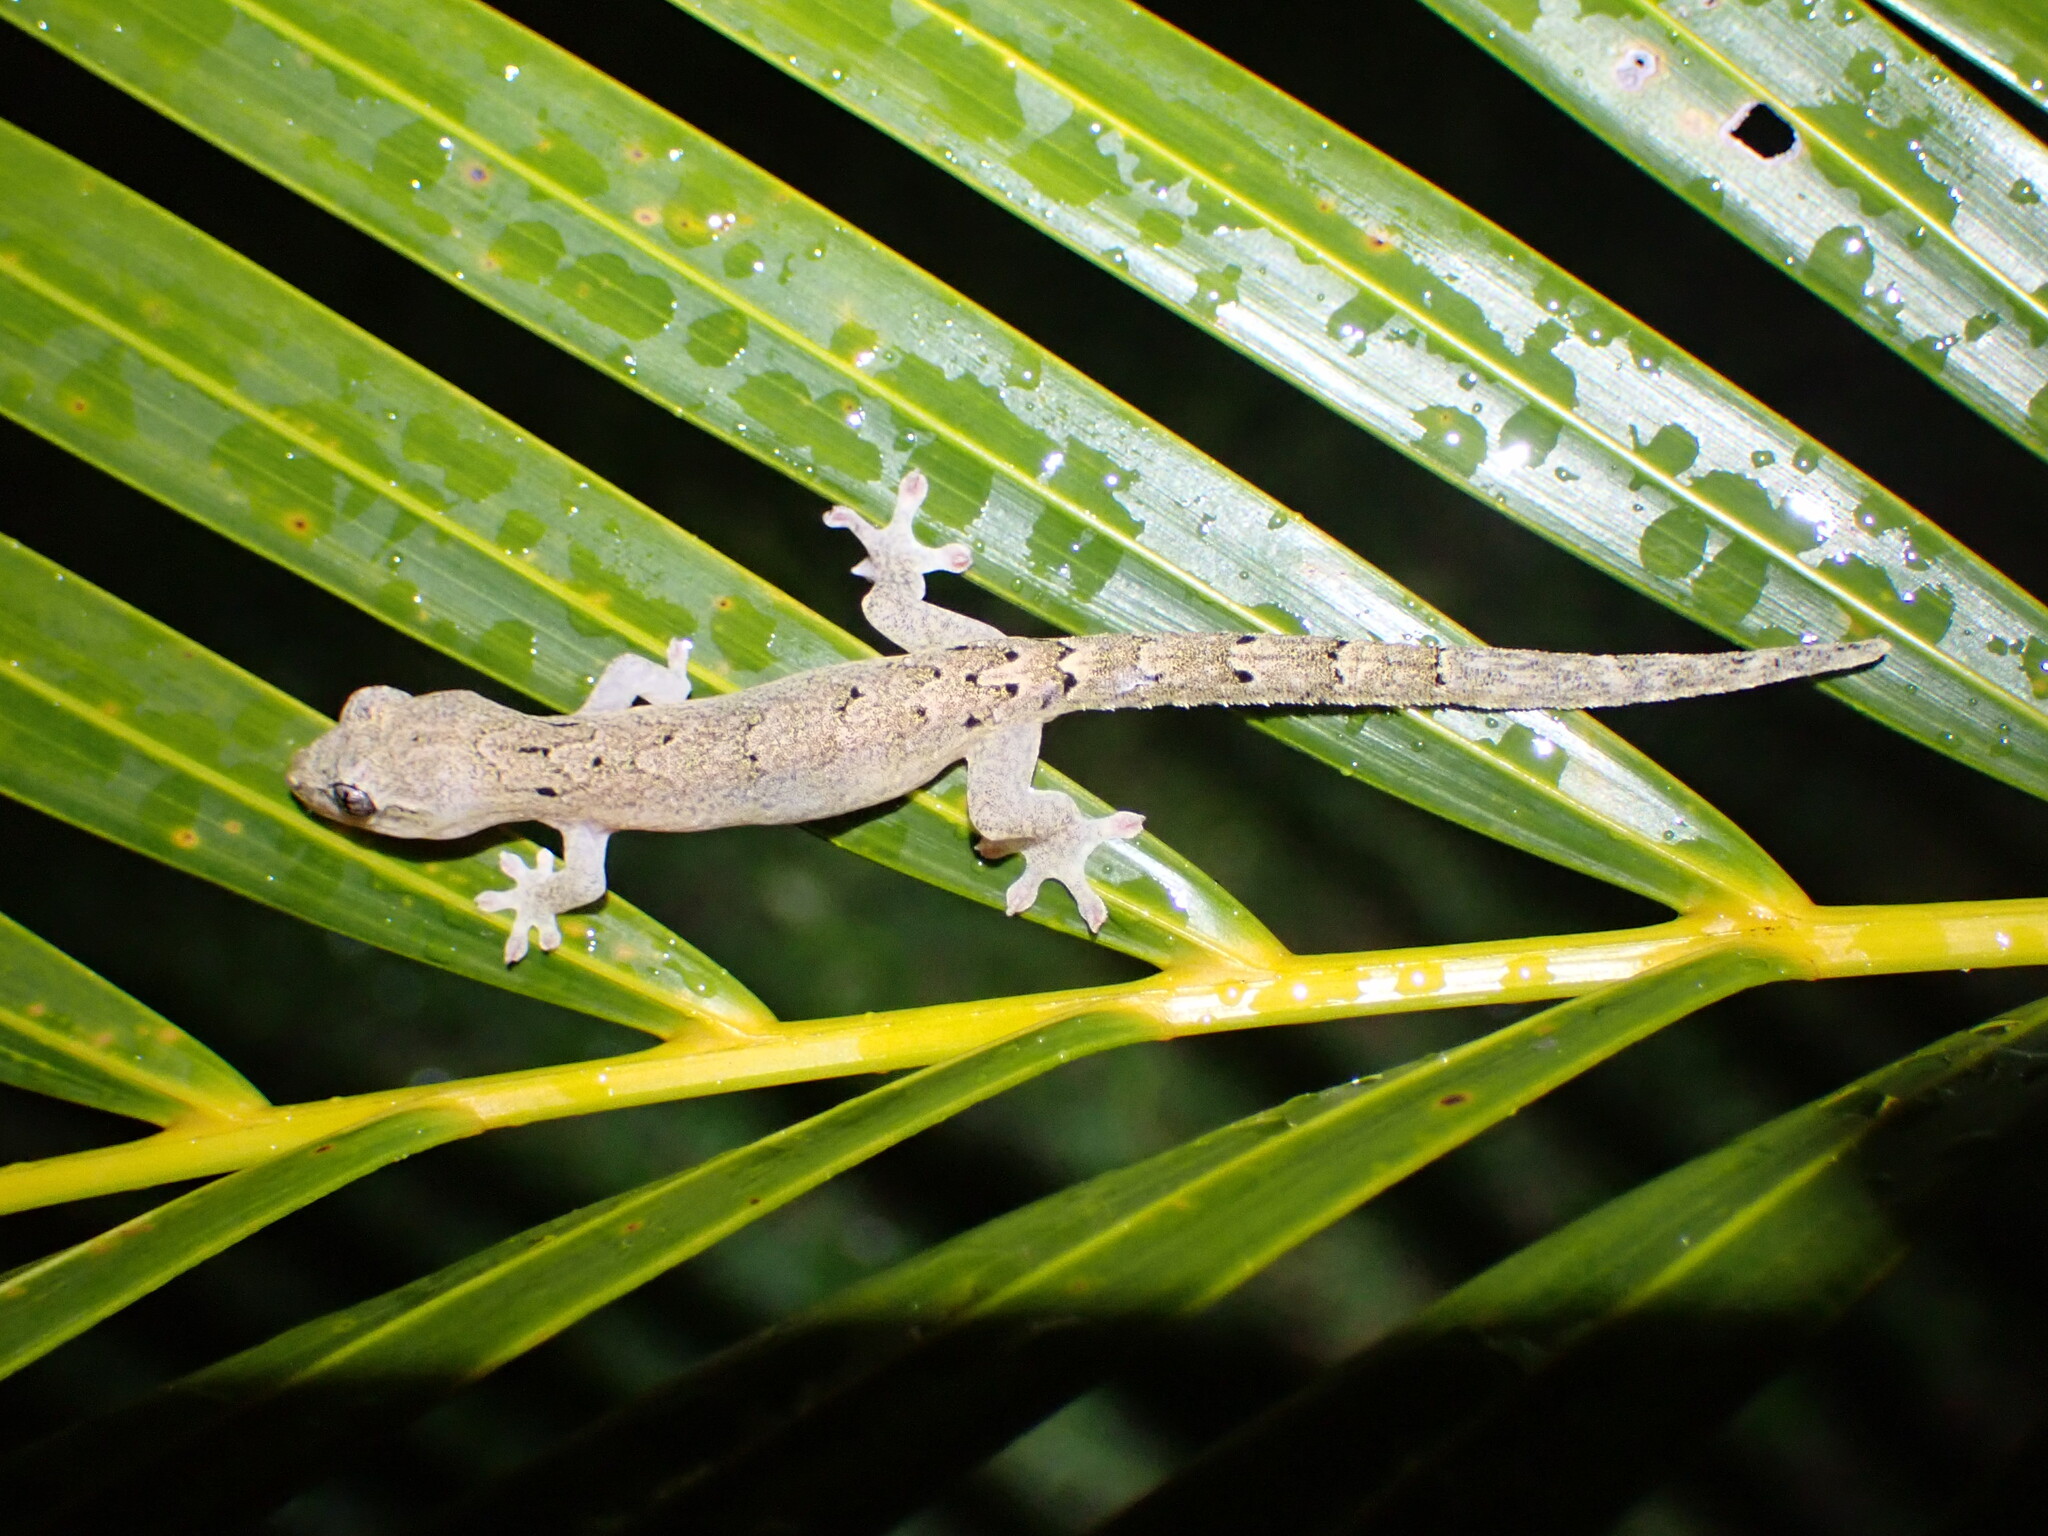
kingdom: Animalia
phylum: Chordata
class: Squamata
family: Gekkonidae
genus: Lepidodactylus
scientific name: Lepidodactylus lugubris
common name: Mourning gecko
